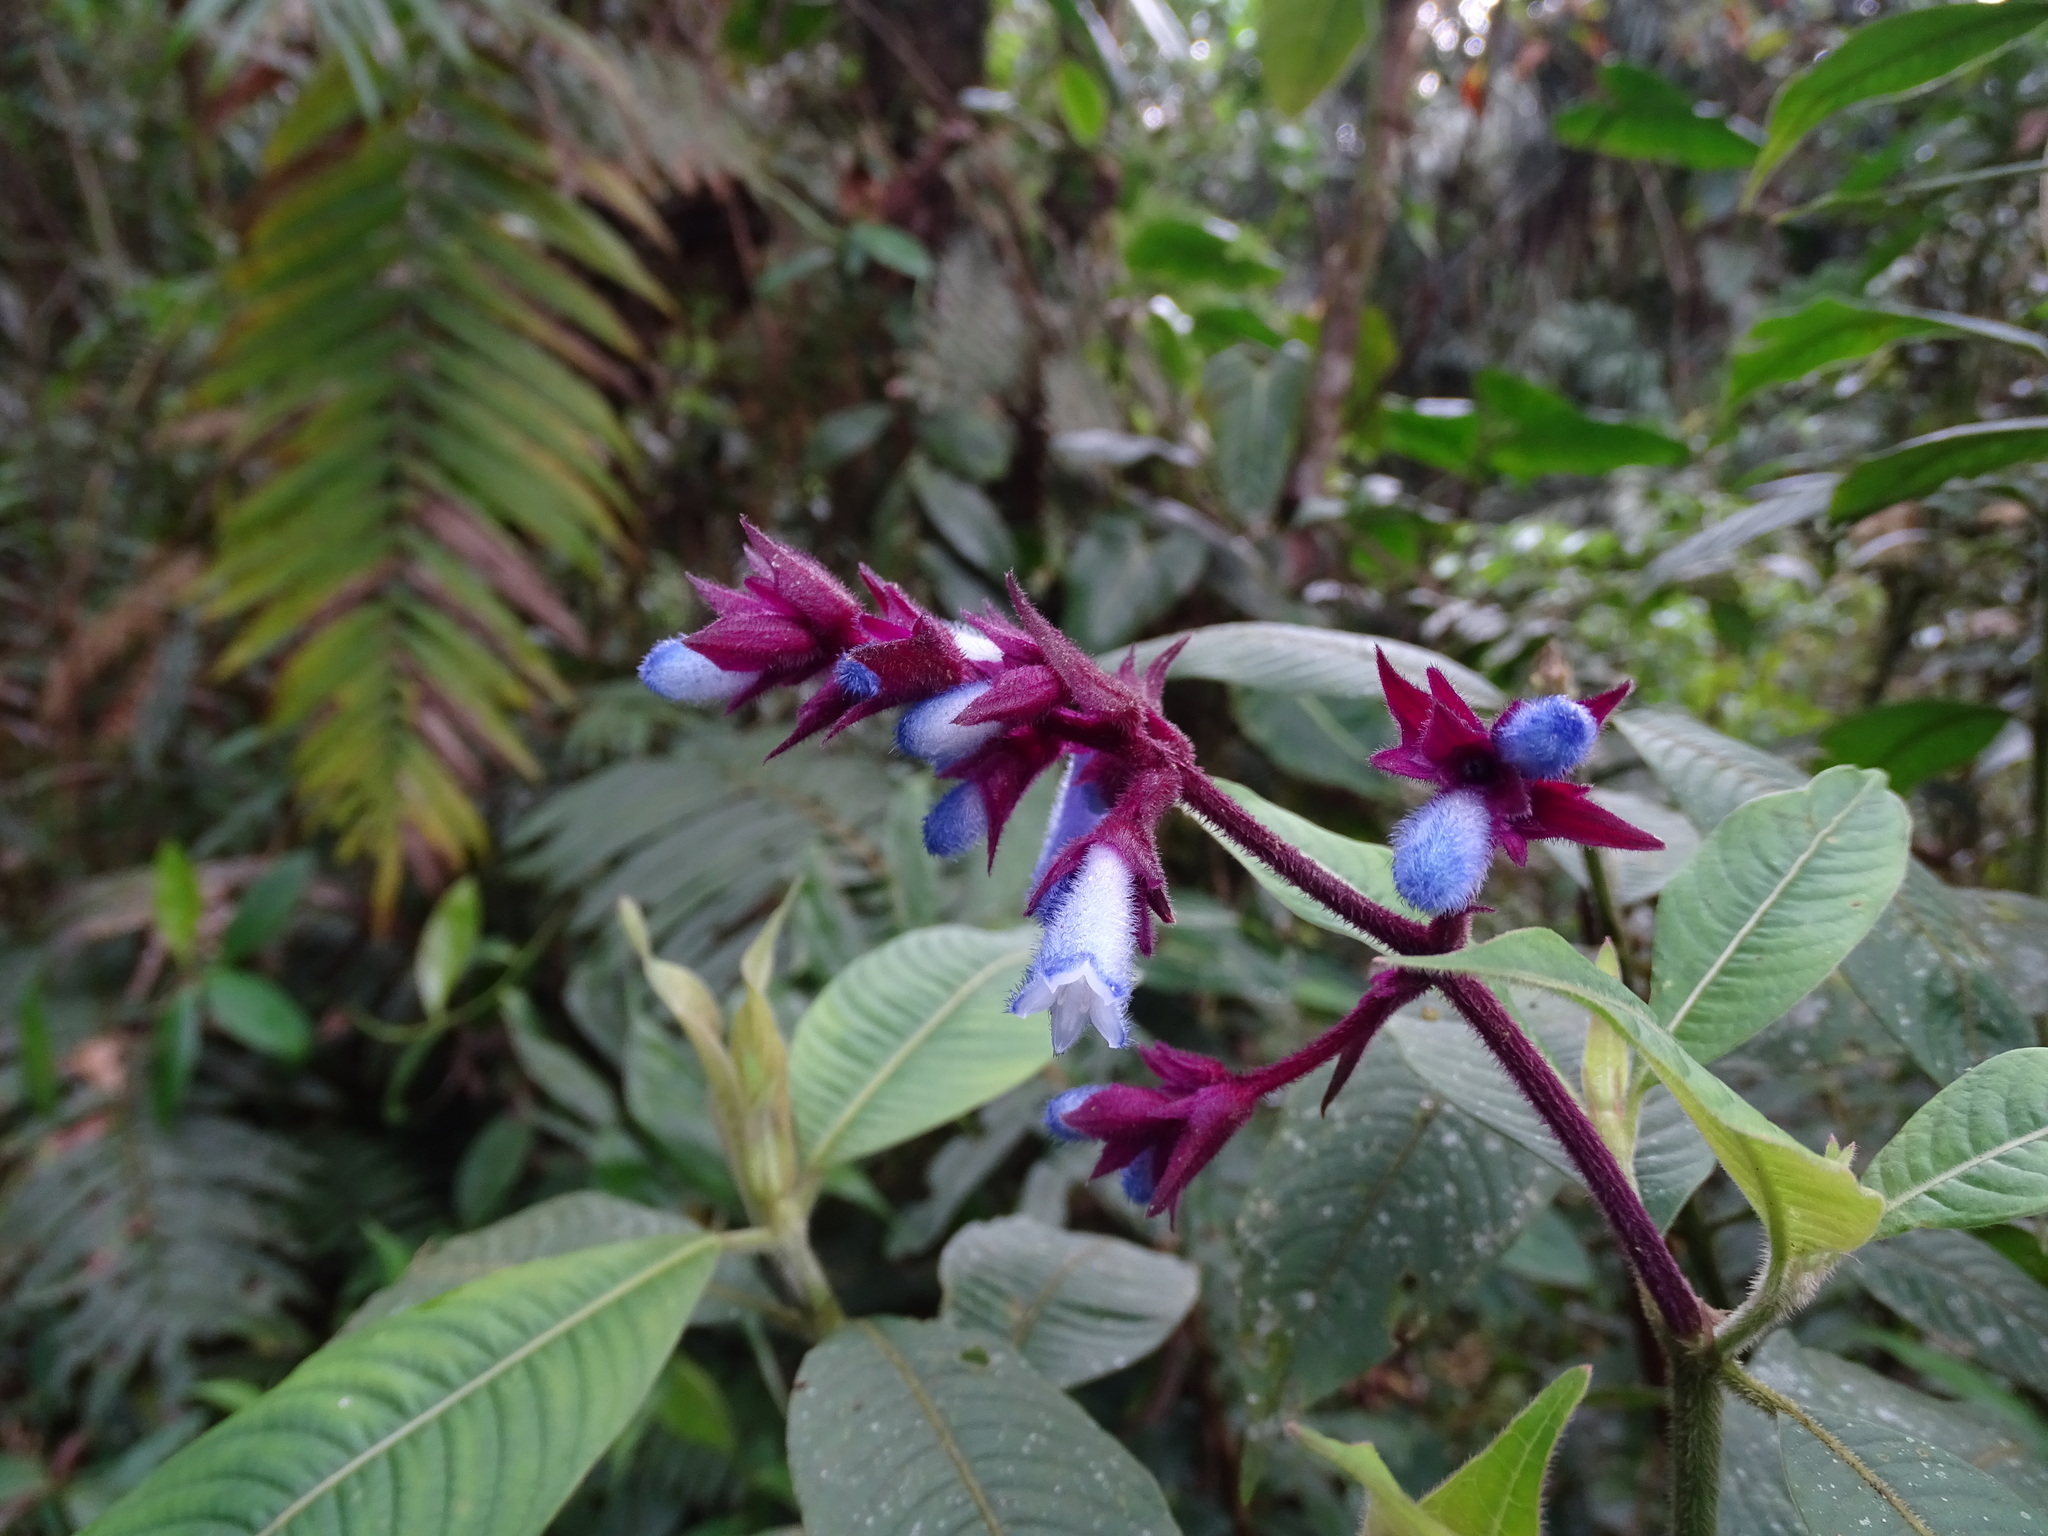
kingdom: Plantae
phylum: Tracheophyta
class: Magnoliopsida
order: Gentianales
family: Rubiaceae
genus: Palicourea
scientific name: Palicourea tunjaensis
